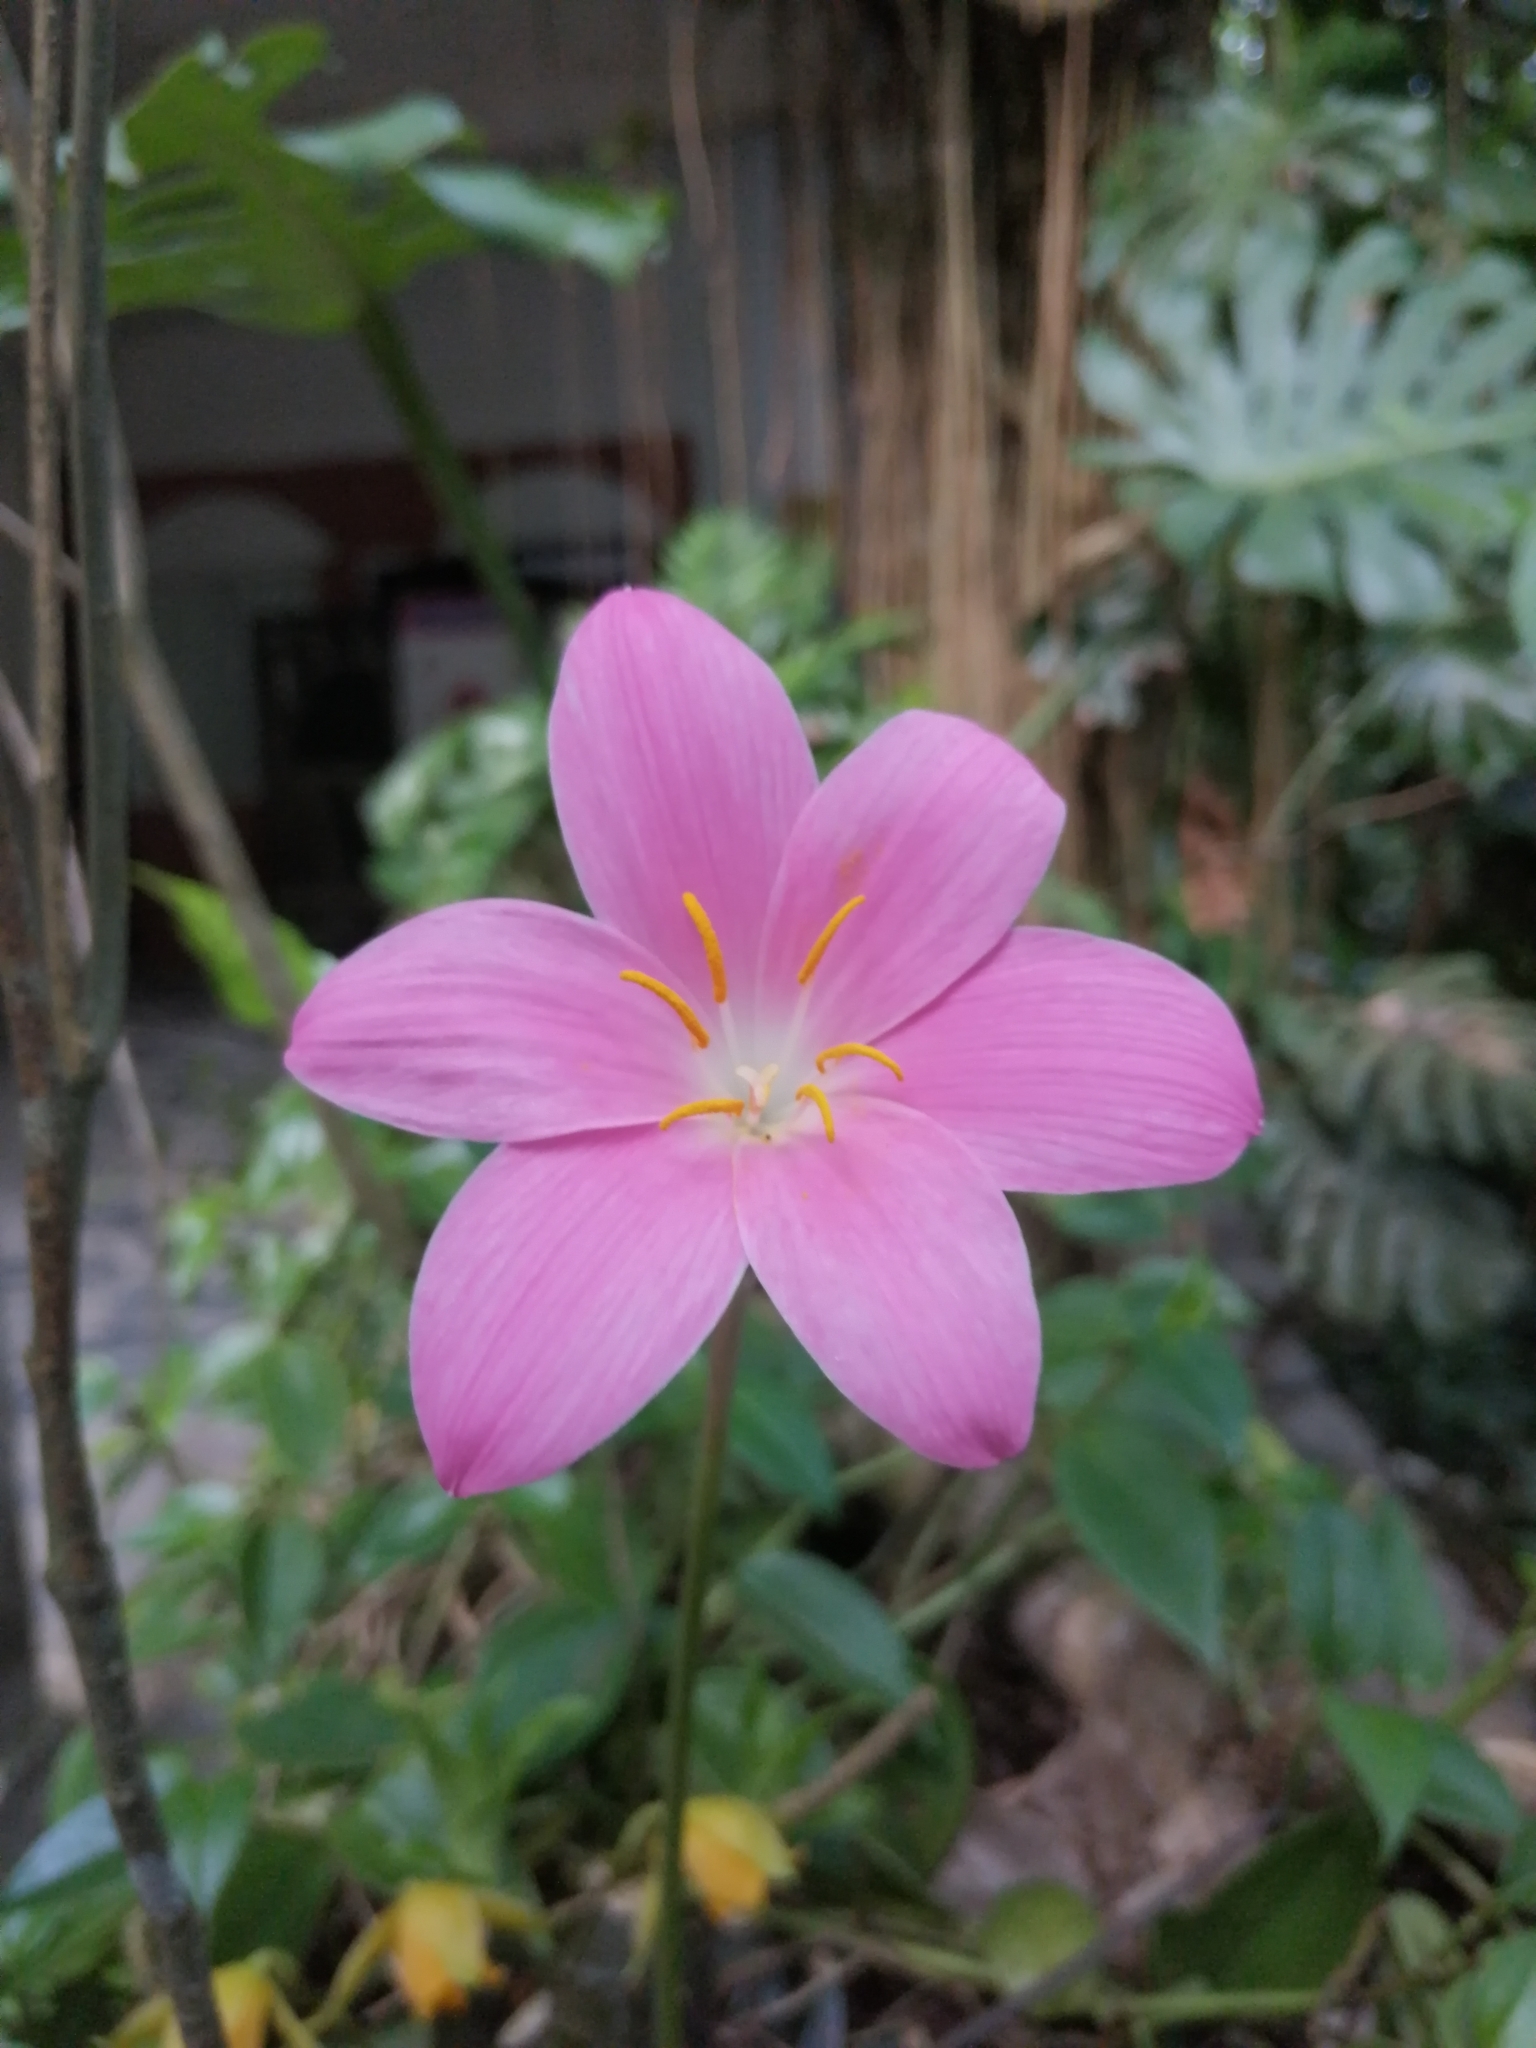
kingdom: Plantae
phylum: Tracheophyta
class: Liliopsida
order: Asparagales
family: Amaryllidaceae
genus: Zephyranthes
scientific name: Zephyranthes macrosiphon
